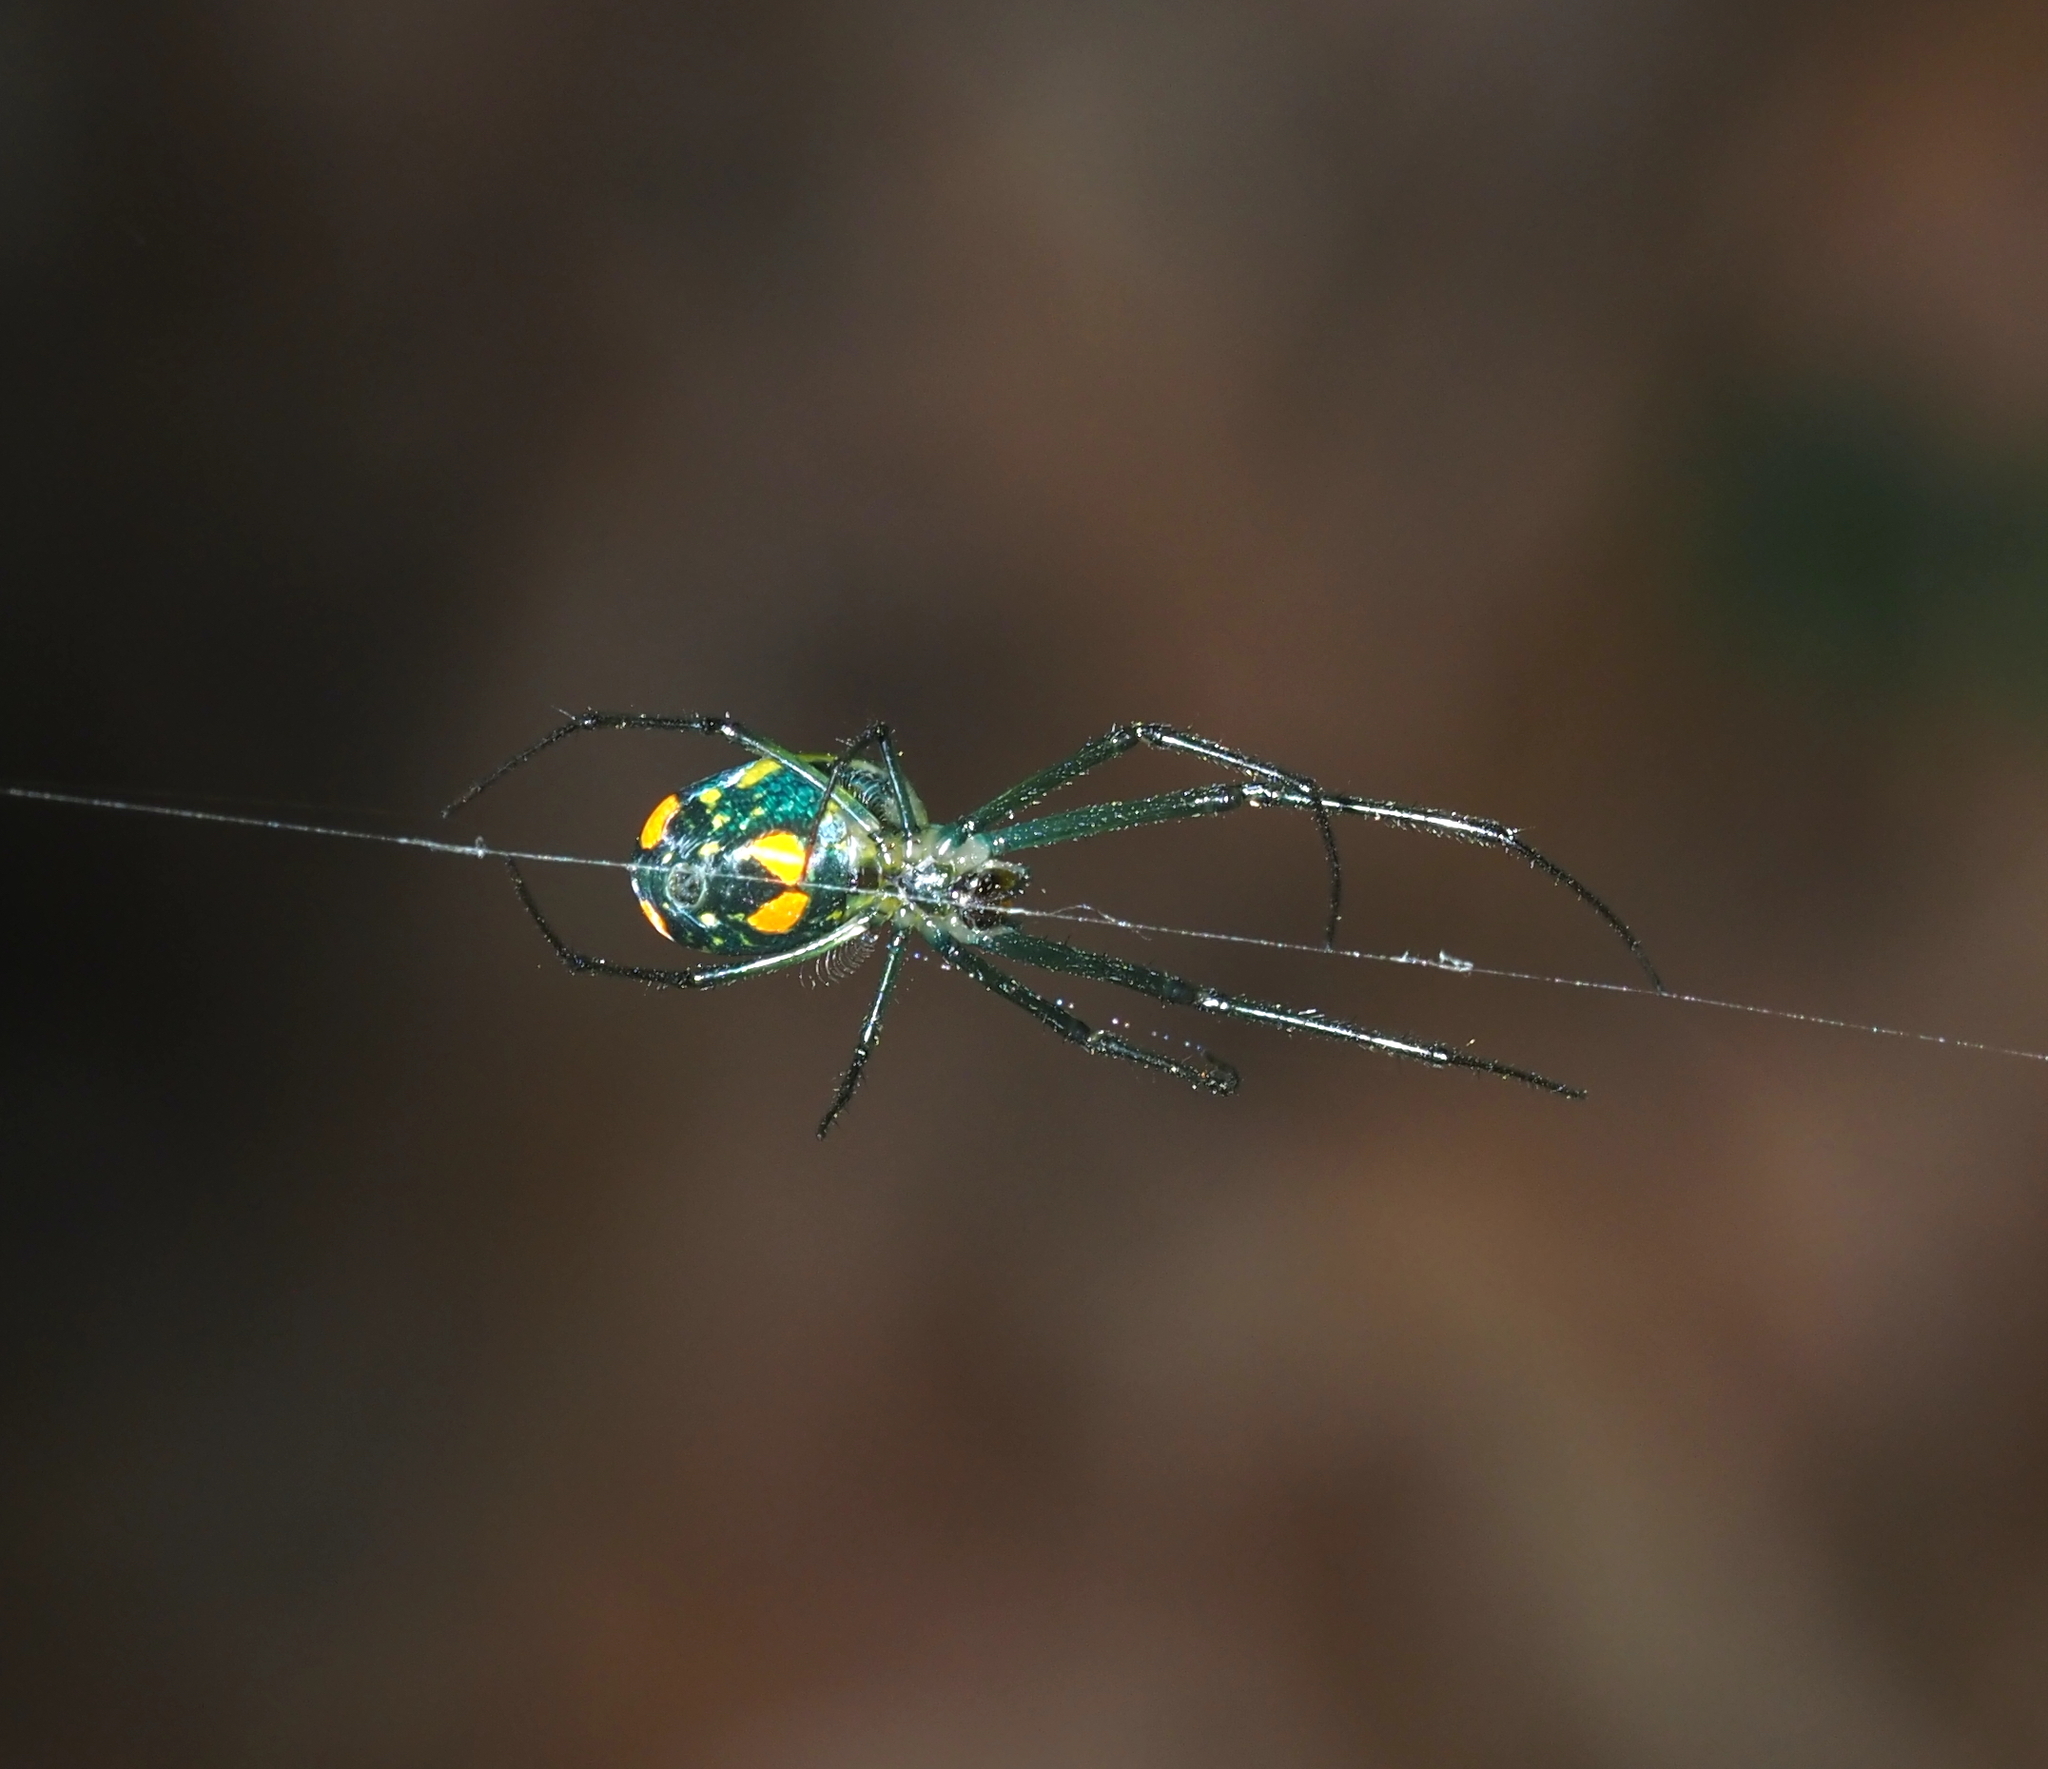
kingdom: Animalia
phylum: Arthropoda
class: Arachnida
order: Araneae
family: Tetragnathidae
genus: Leucauge
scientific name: Leucauge argyrobapta
